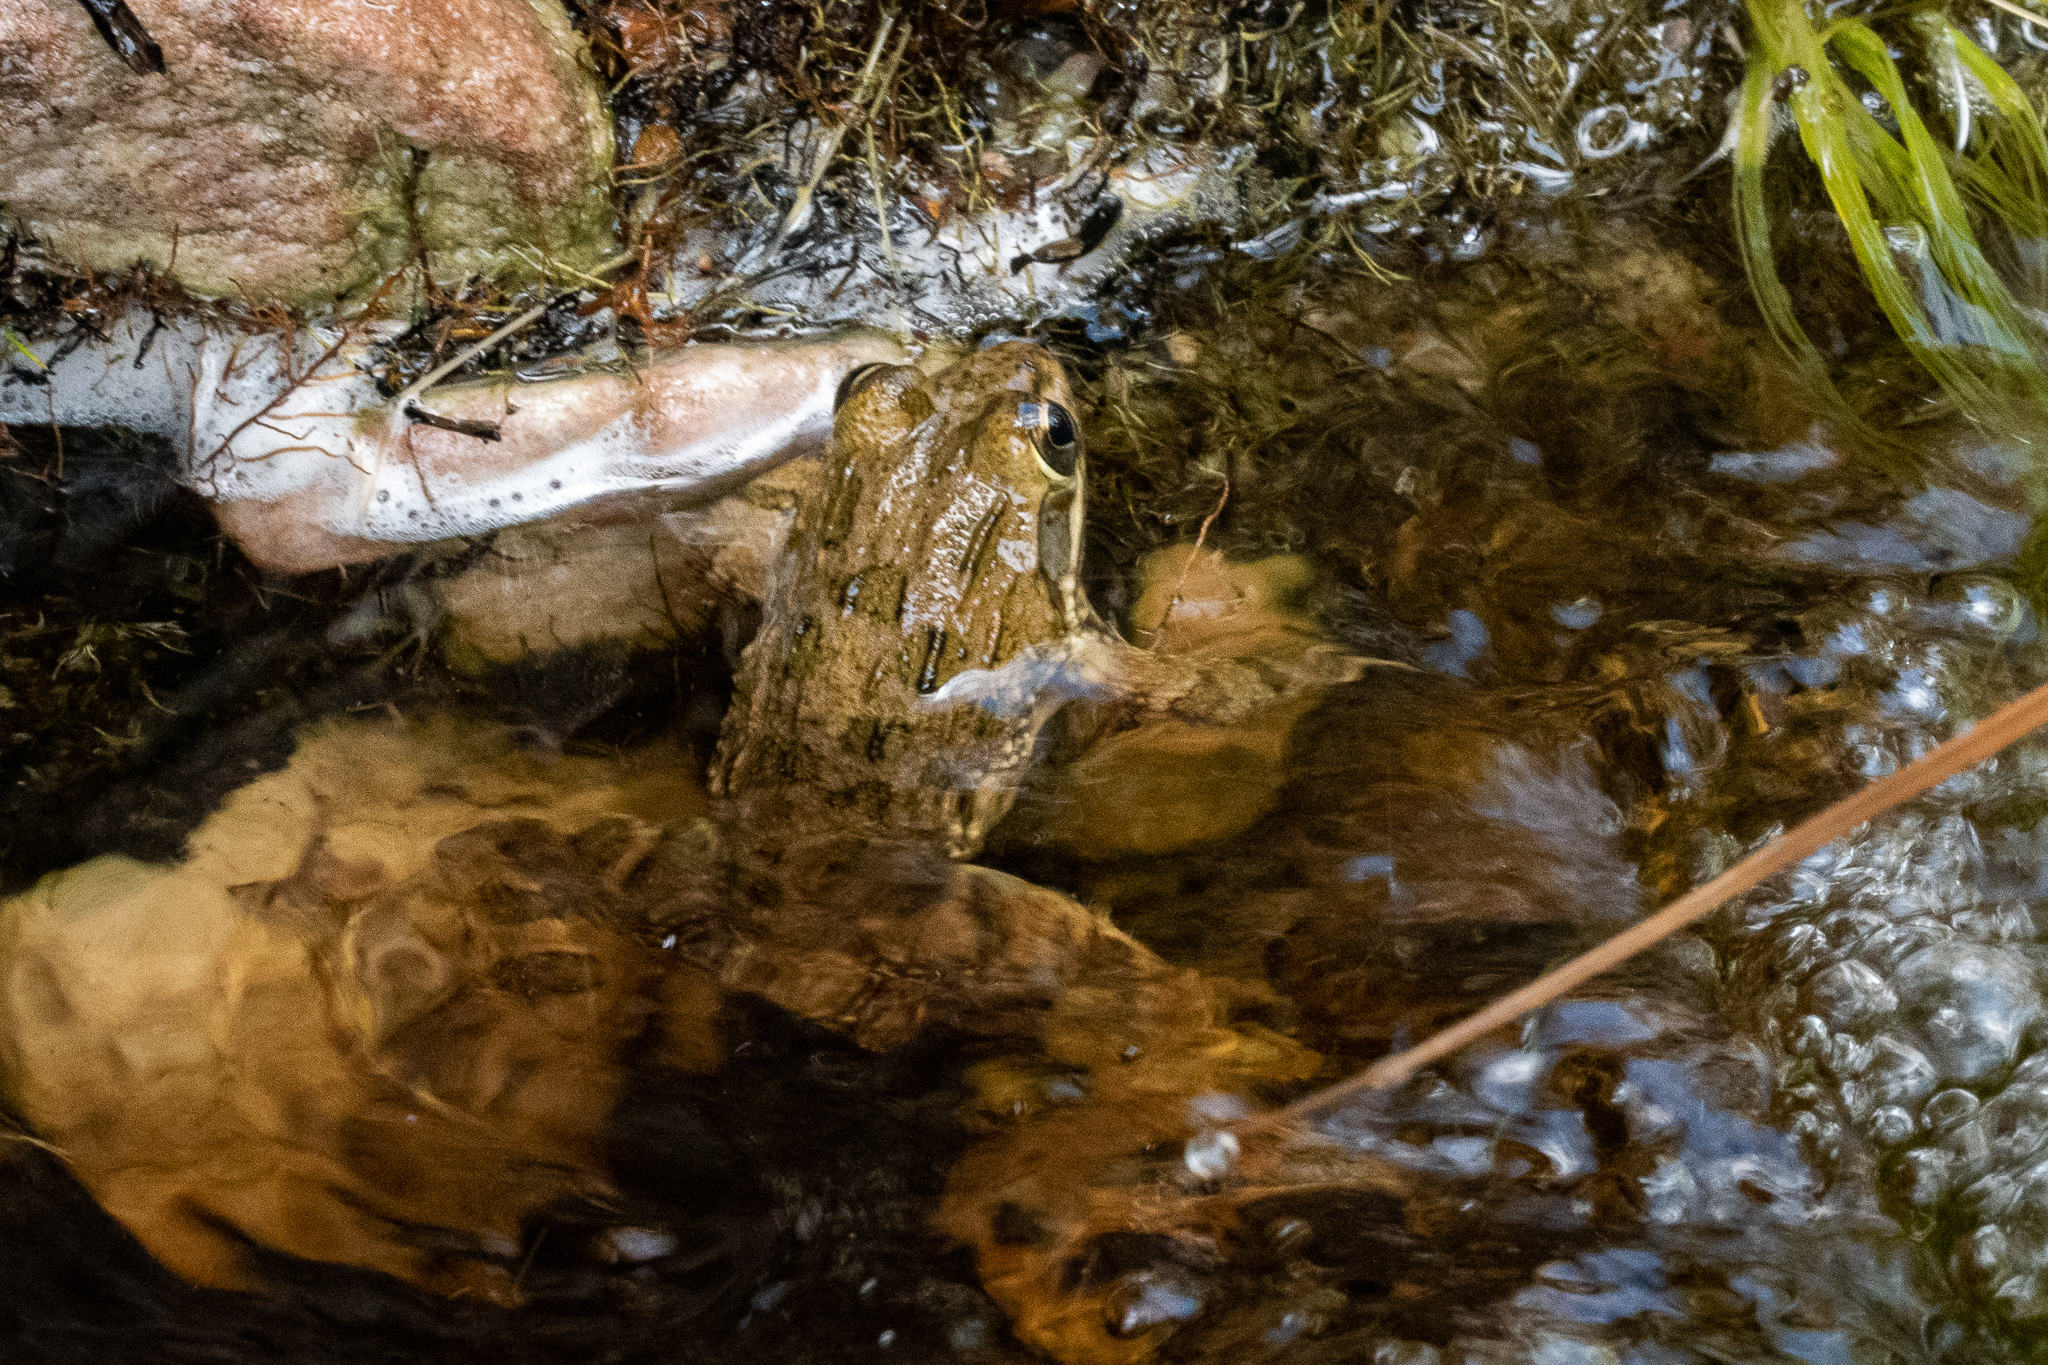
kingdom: Animalia
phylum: Chordata
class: Amphibia
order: Anura
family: Pyxicephalidae
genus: Amietia
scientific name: Amietia fuscigula
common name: Cape rana
